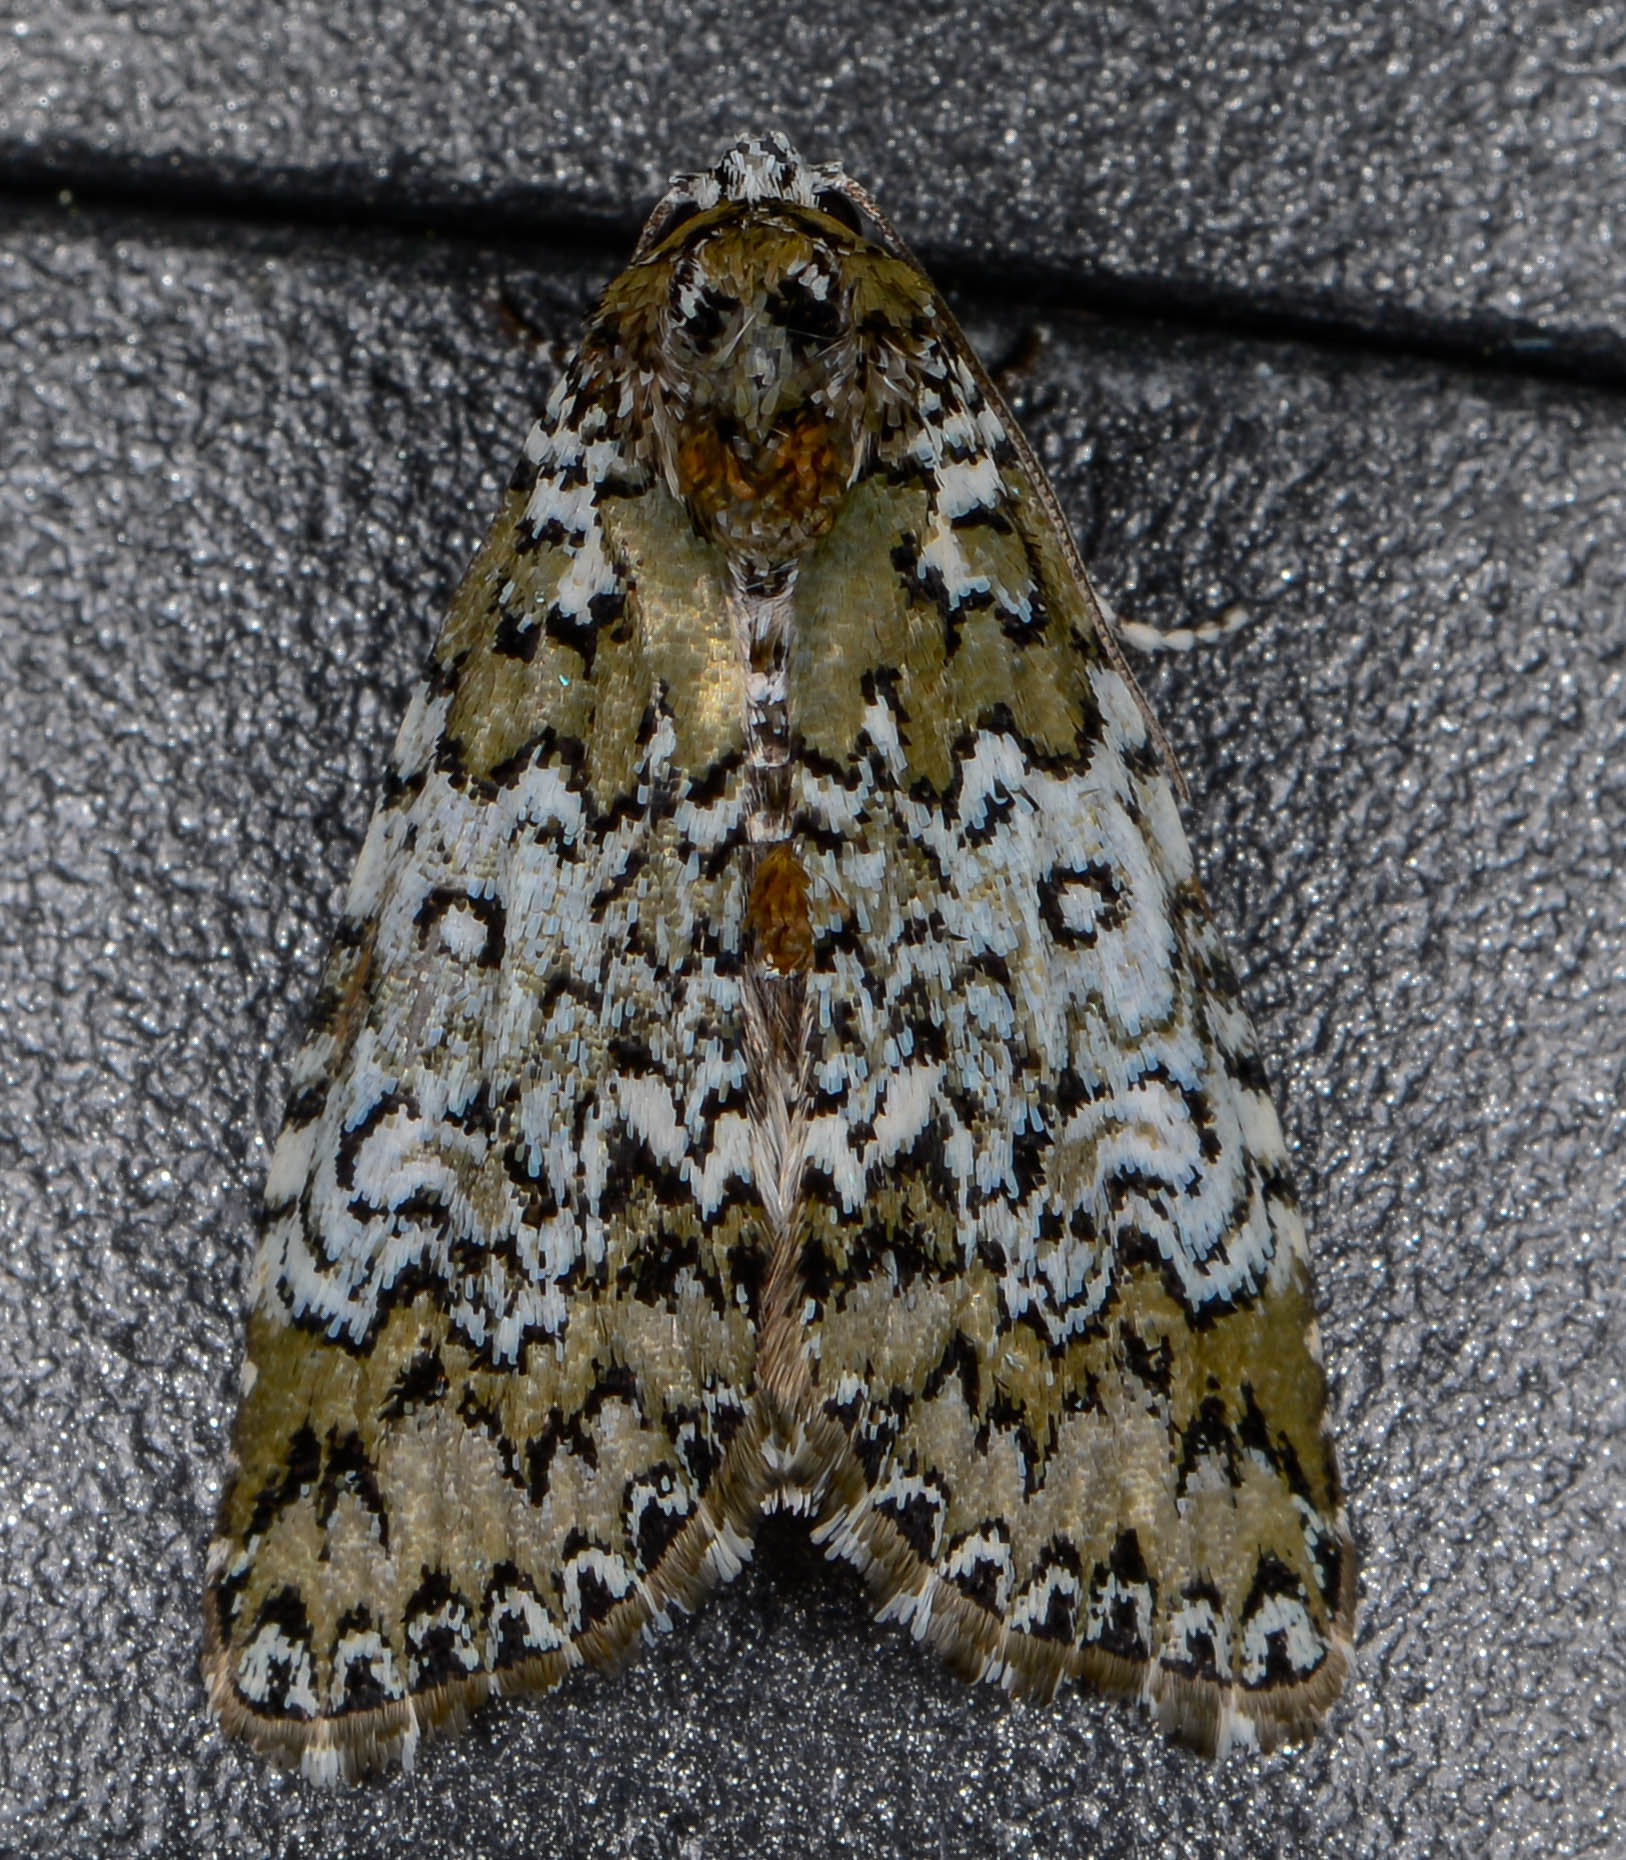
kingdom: Animalia
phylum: Arthropoda
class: Insecta
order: Lepidoptera
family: Noctuidae
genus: Cerma
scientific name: Cerma cora
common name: Bird dropping moth
